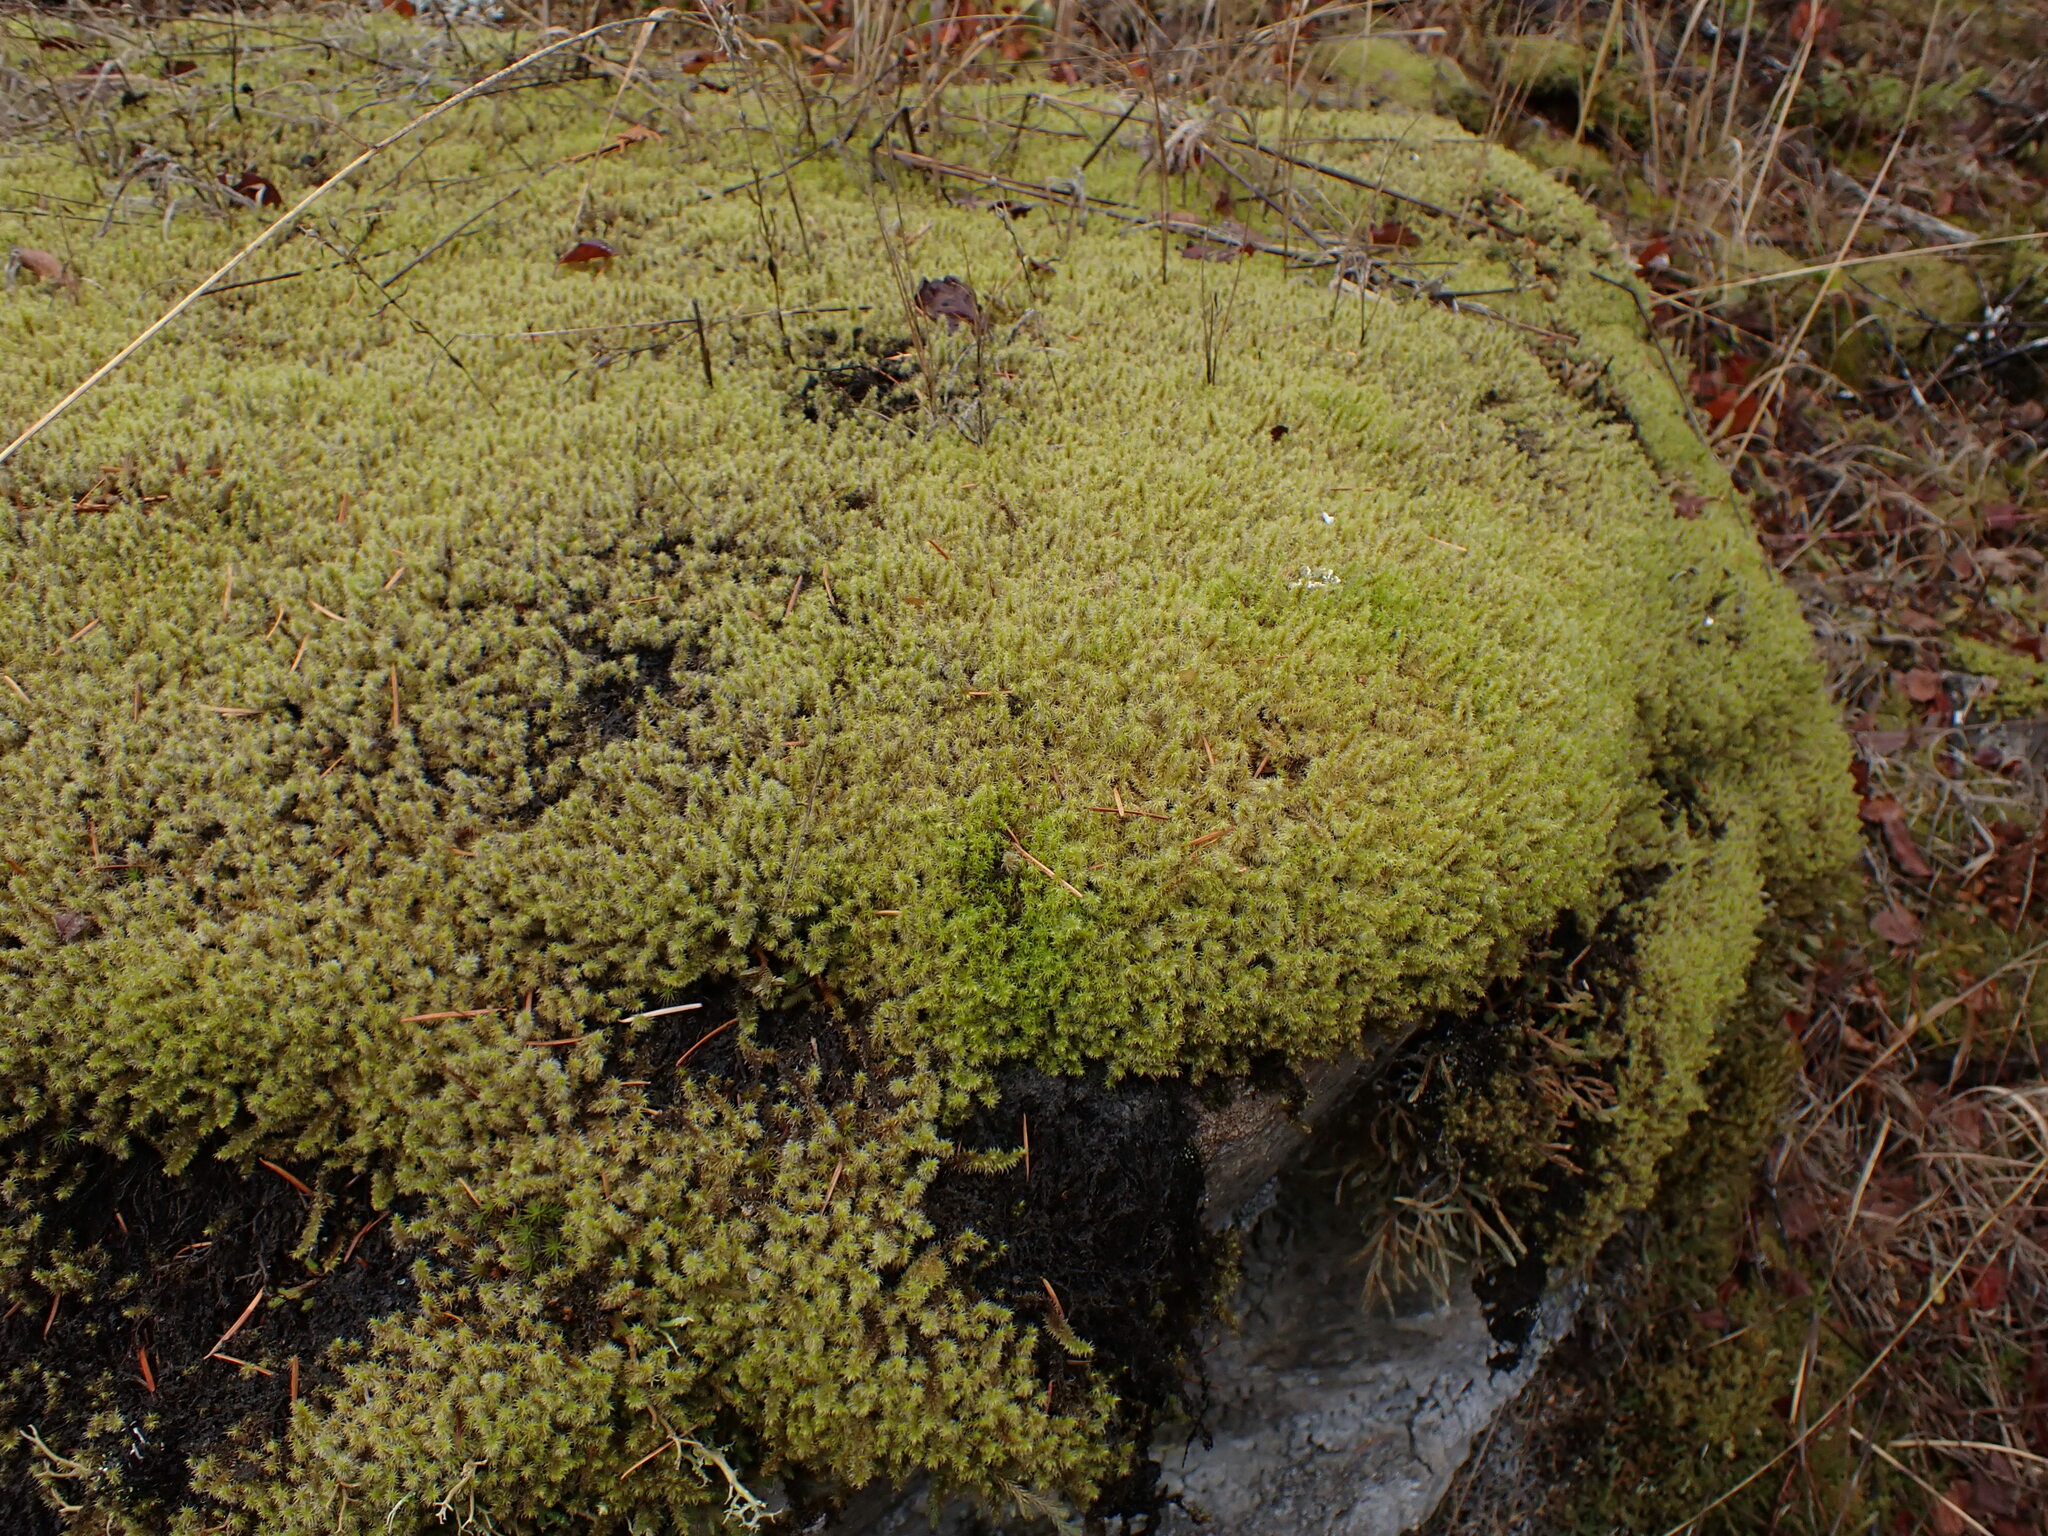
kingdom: Plantae
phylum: Bryophyta
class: Bryopsida
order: Grimmiales
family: Grimmiaceae
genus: Niphotrichum
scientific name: Niphotrichum elongatum
